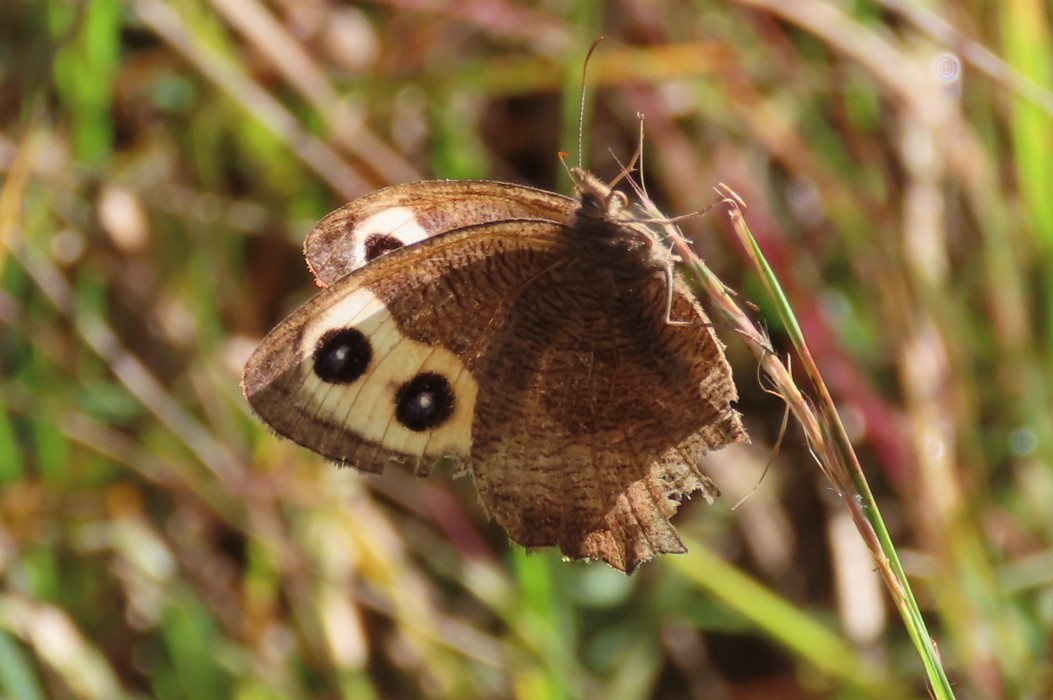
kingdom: Animalia
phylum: Arthropoda
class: Insecta
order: Lepidoptera
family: Nymphalidae
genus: Cercyonis
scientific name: Cercyonis pegala
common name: Common wood-nymph
